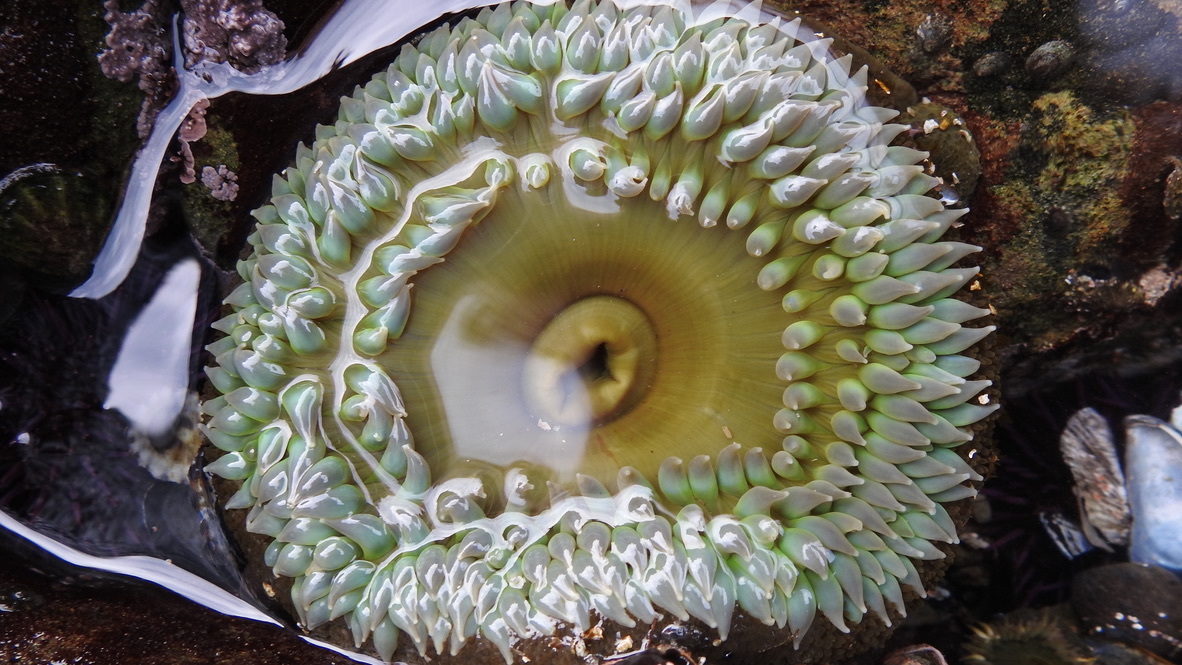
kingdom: Animalia
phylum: Cnidaria
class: Anthozoa
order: Actiniaria
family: Actiniidae
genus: Anthopleura
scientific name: Anthopleura xanthogrammica
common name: Giant green anemone
